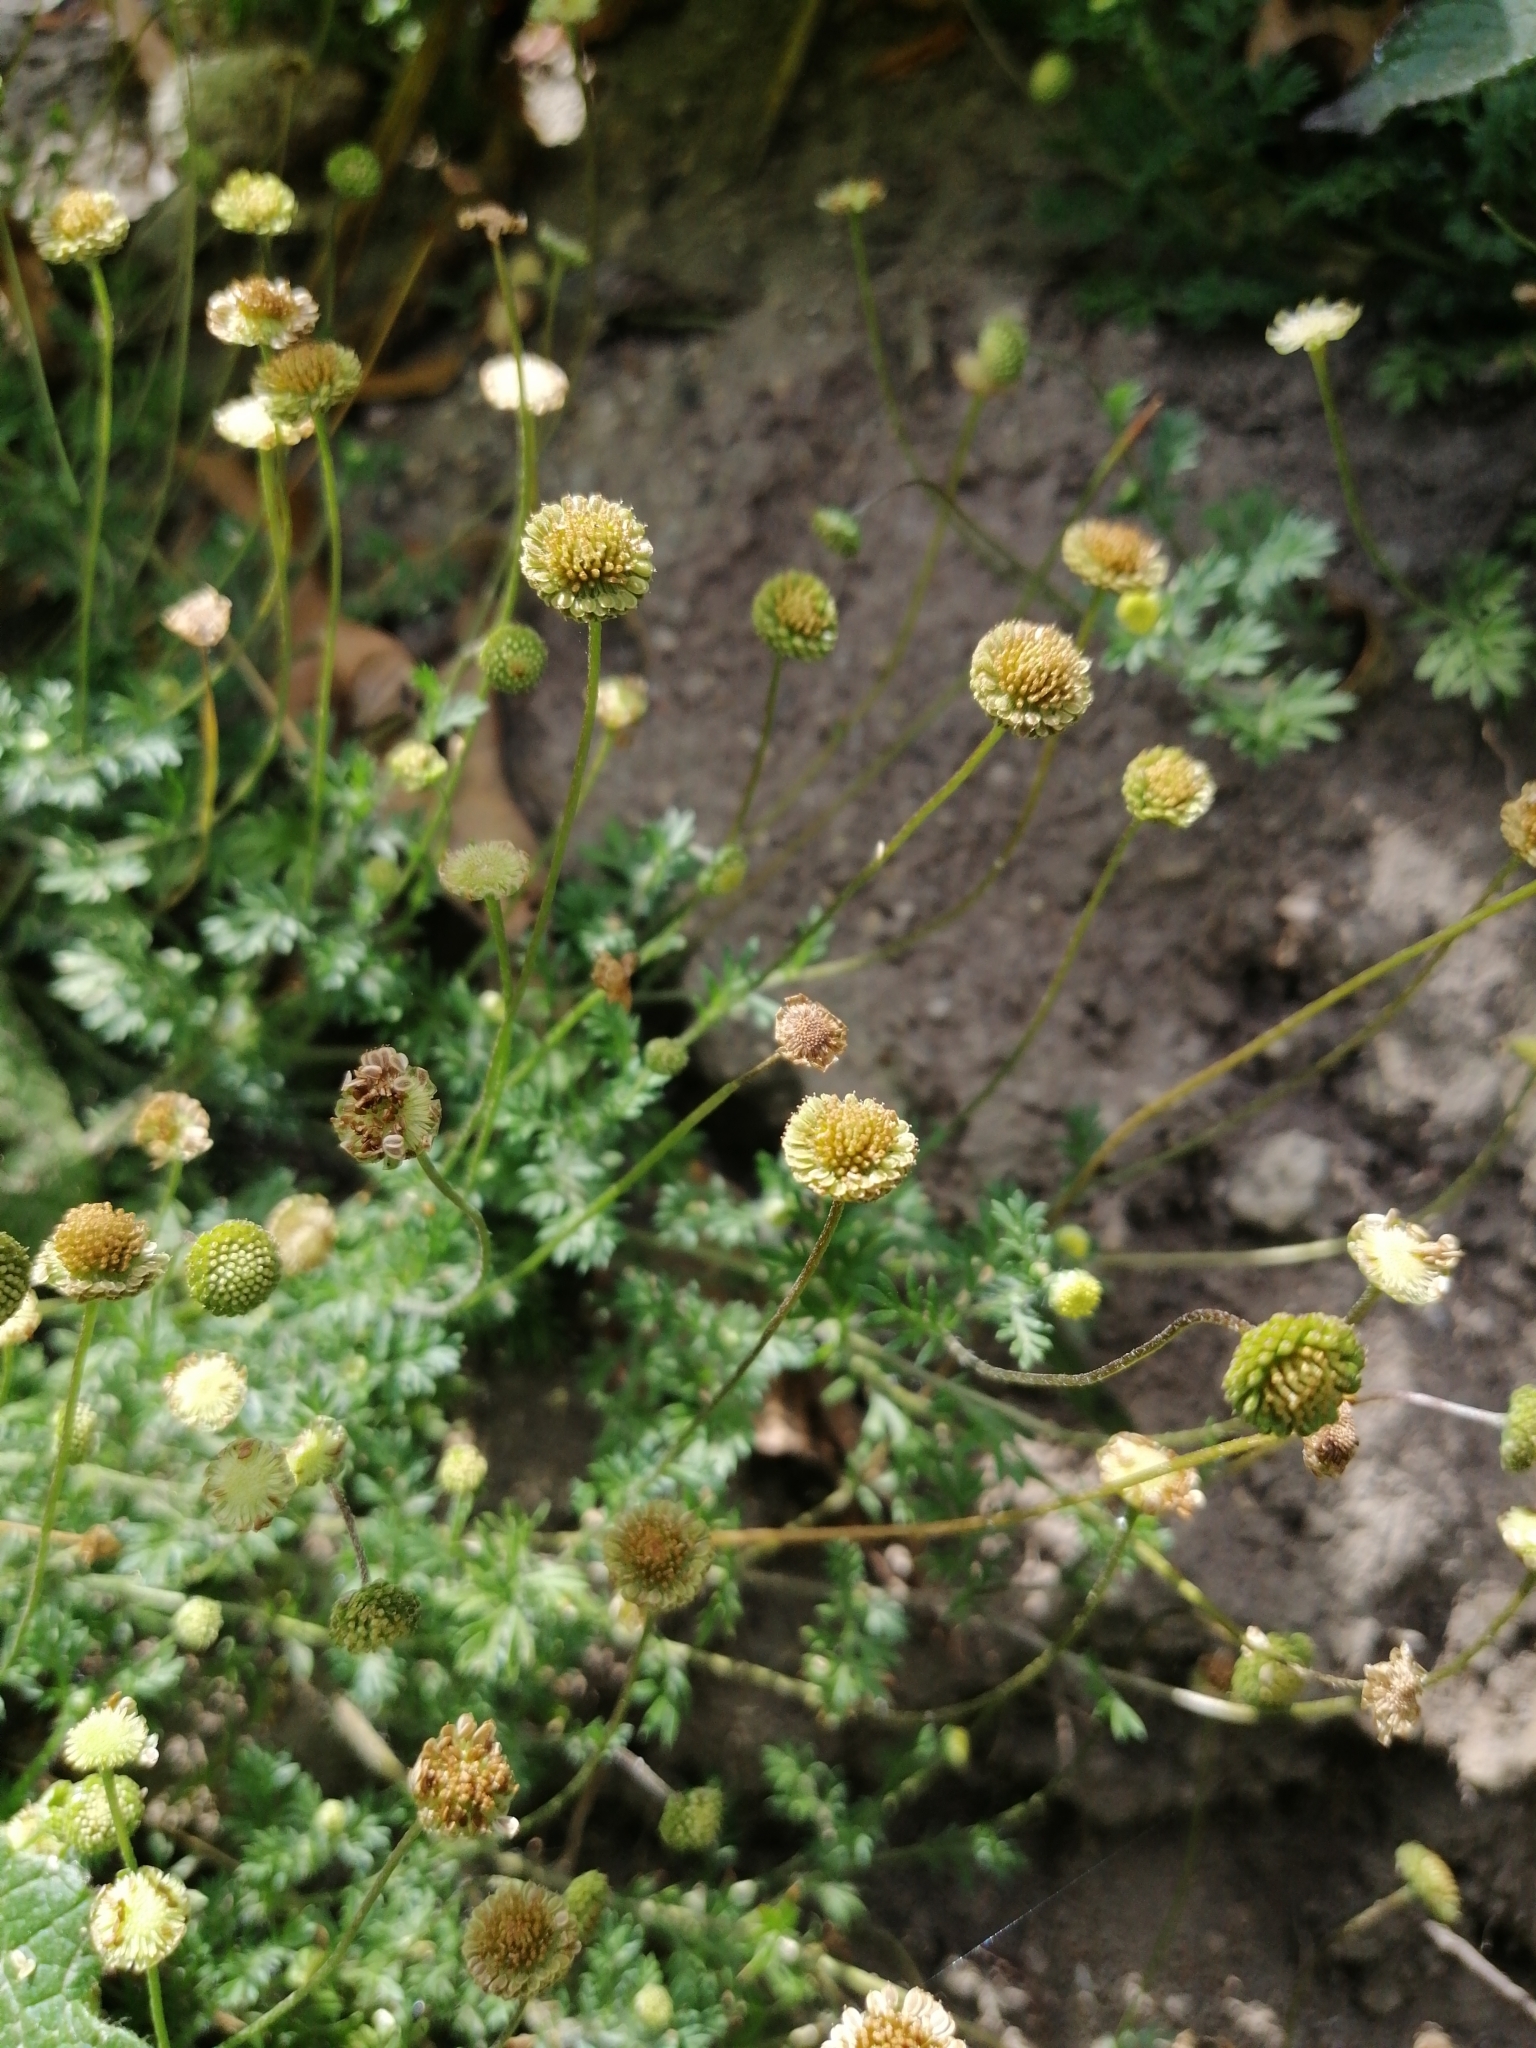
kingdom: Plantae
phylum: Tracheophyta
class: Magnoliopsida
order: Asterales
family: Asteraceae
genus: Cotula
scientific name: Cotula australis
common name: Australian waterbuttons
